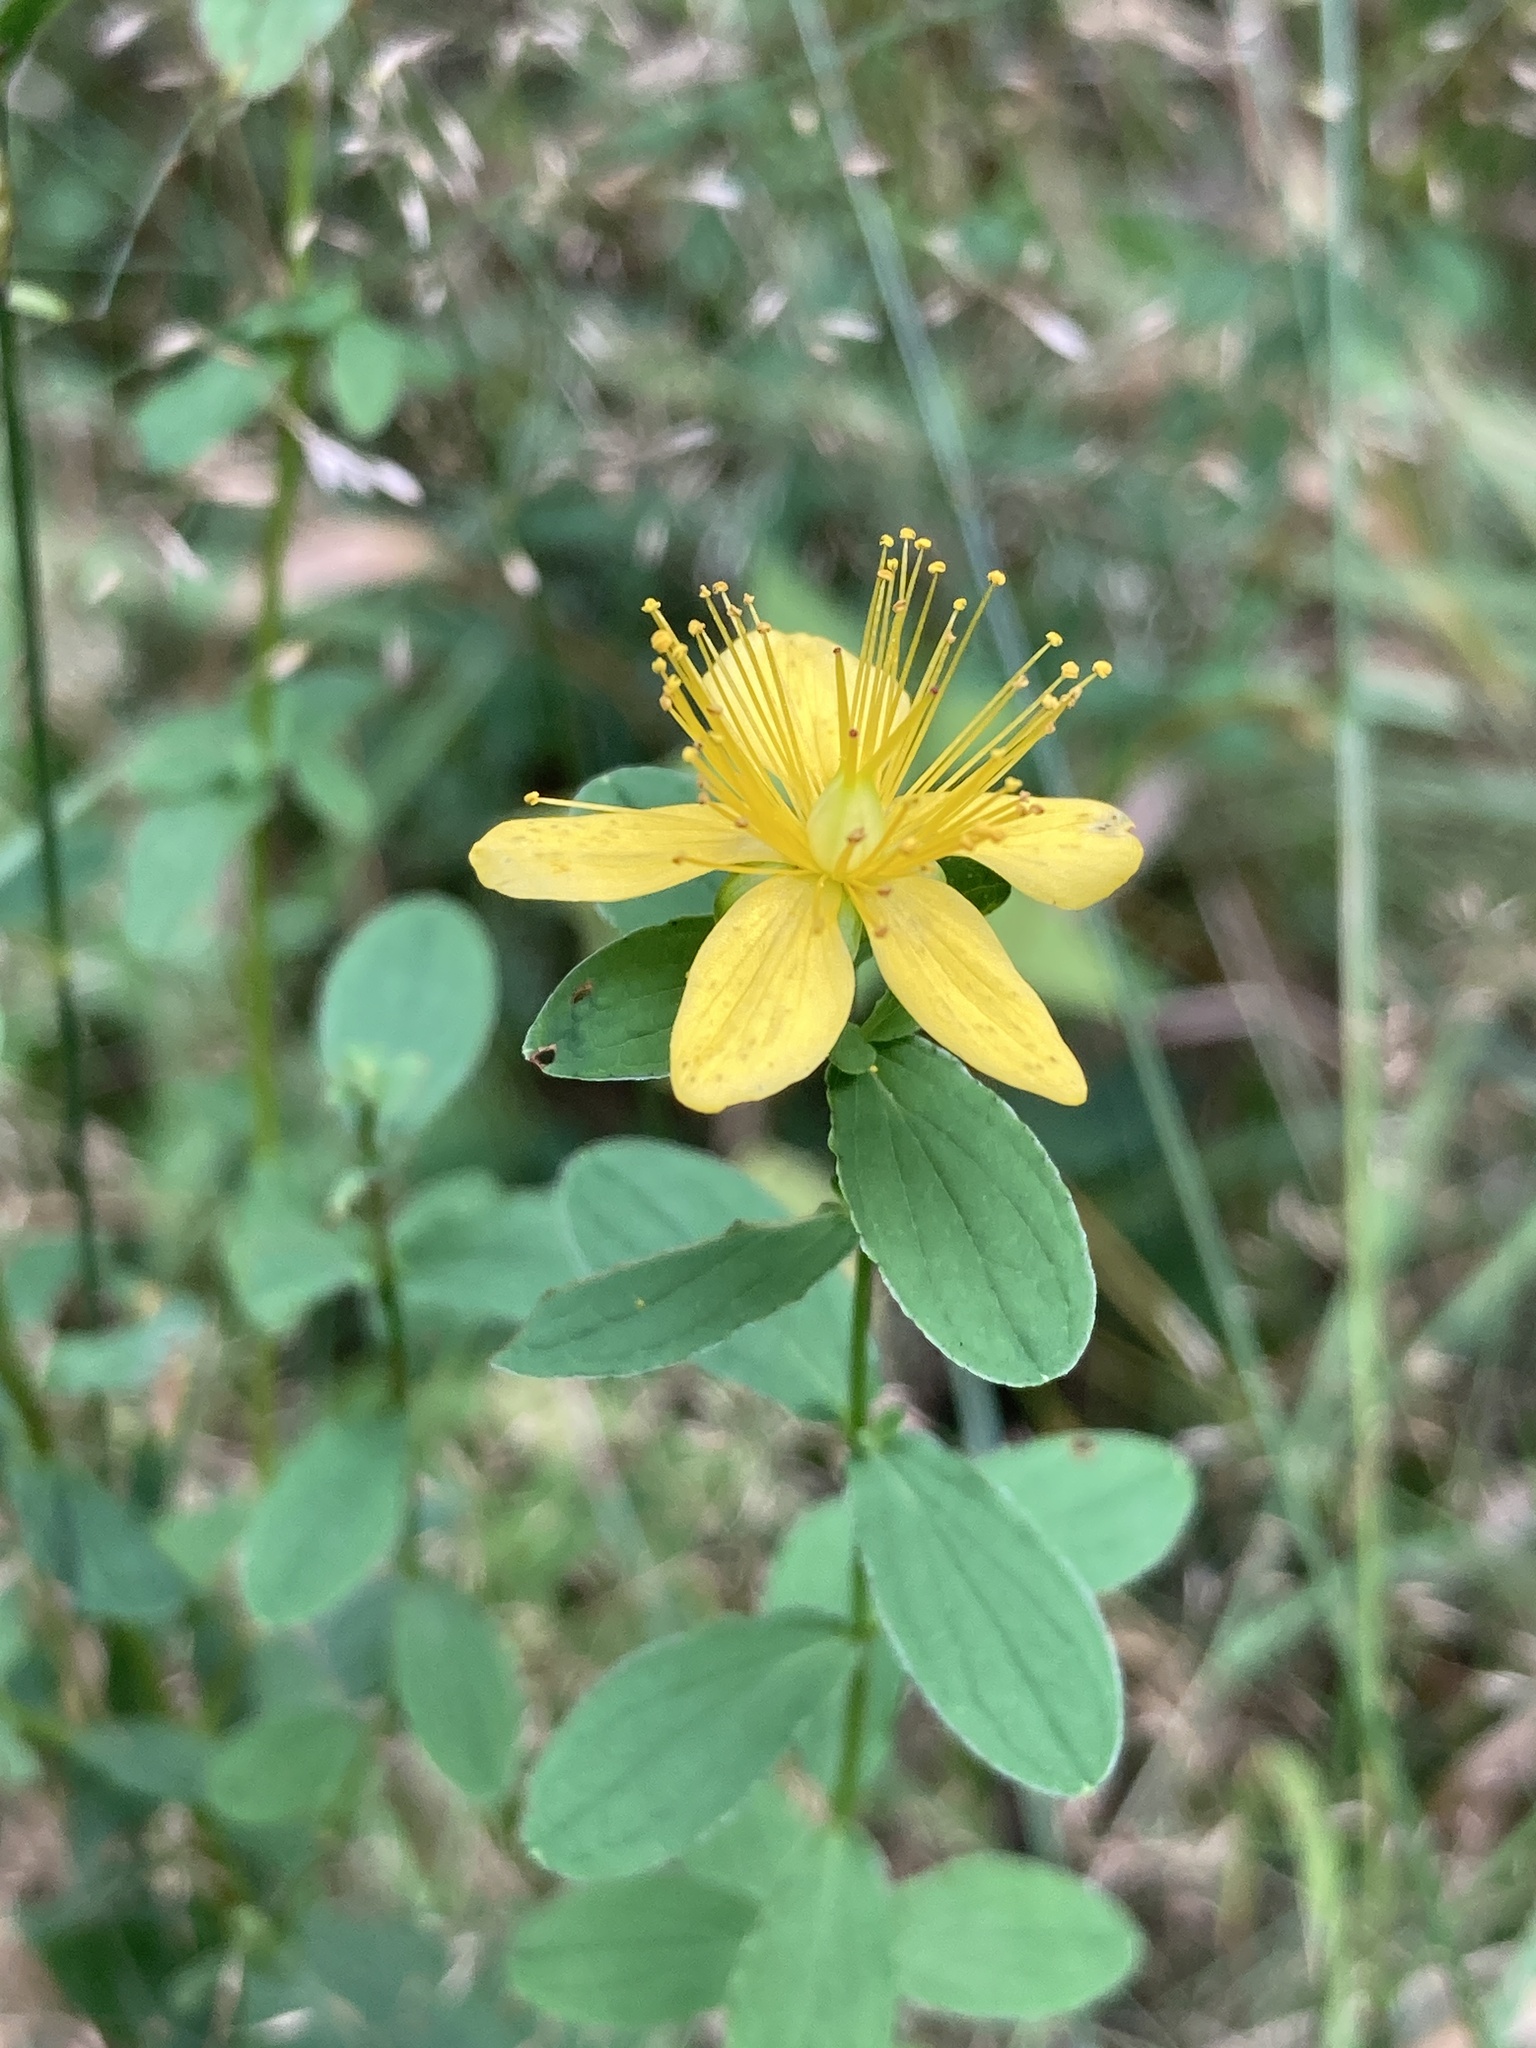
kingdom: Plantae
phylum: Tracheophyta
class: Magnoliopsida
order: Malpighiales
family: Hypericaceae
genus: Hypericum
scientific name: Hypericum maculatum
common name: Imperforate st. john's-wort
